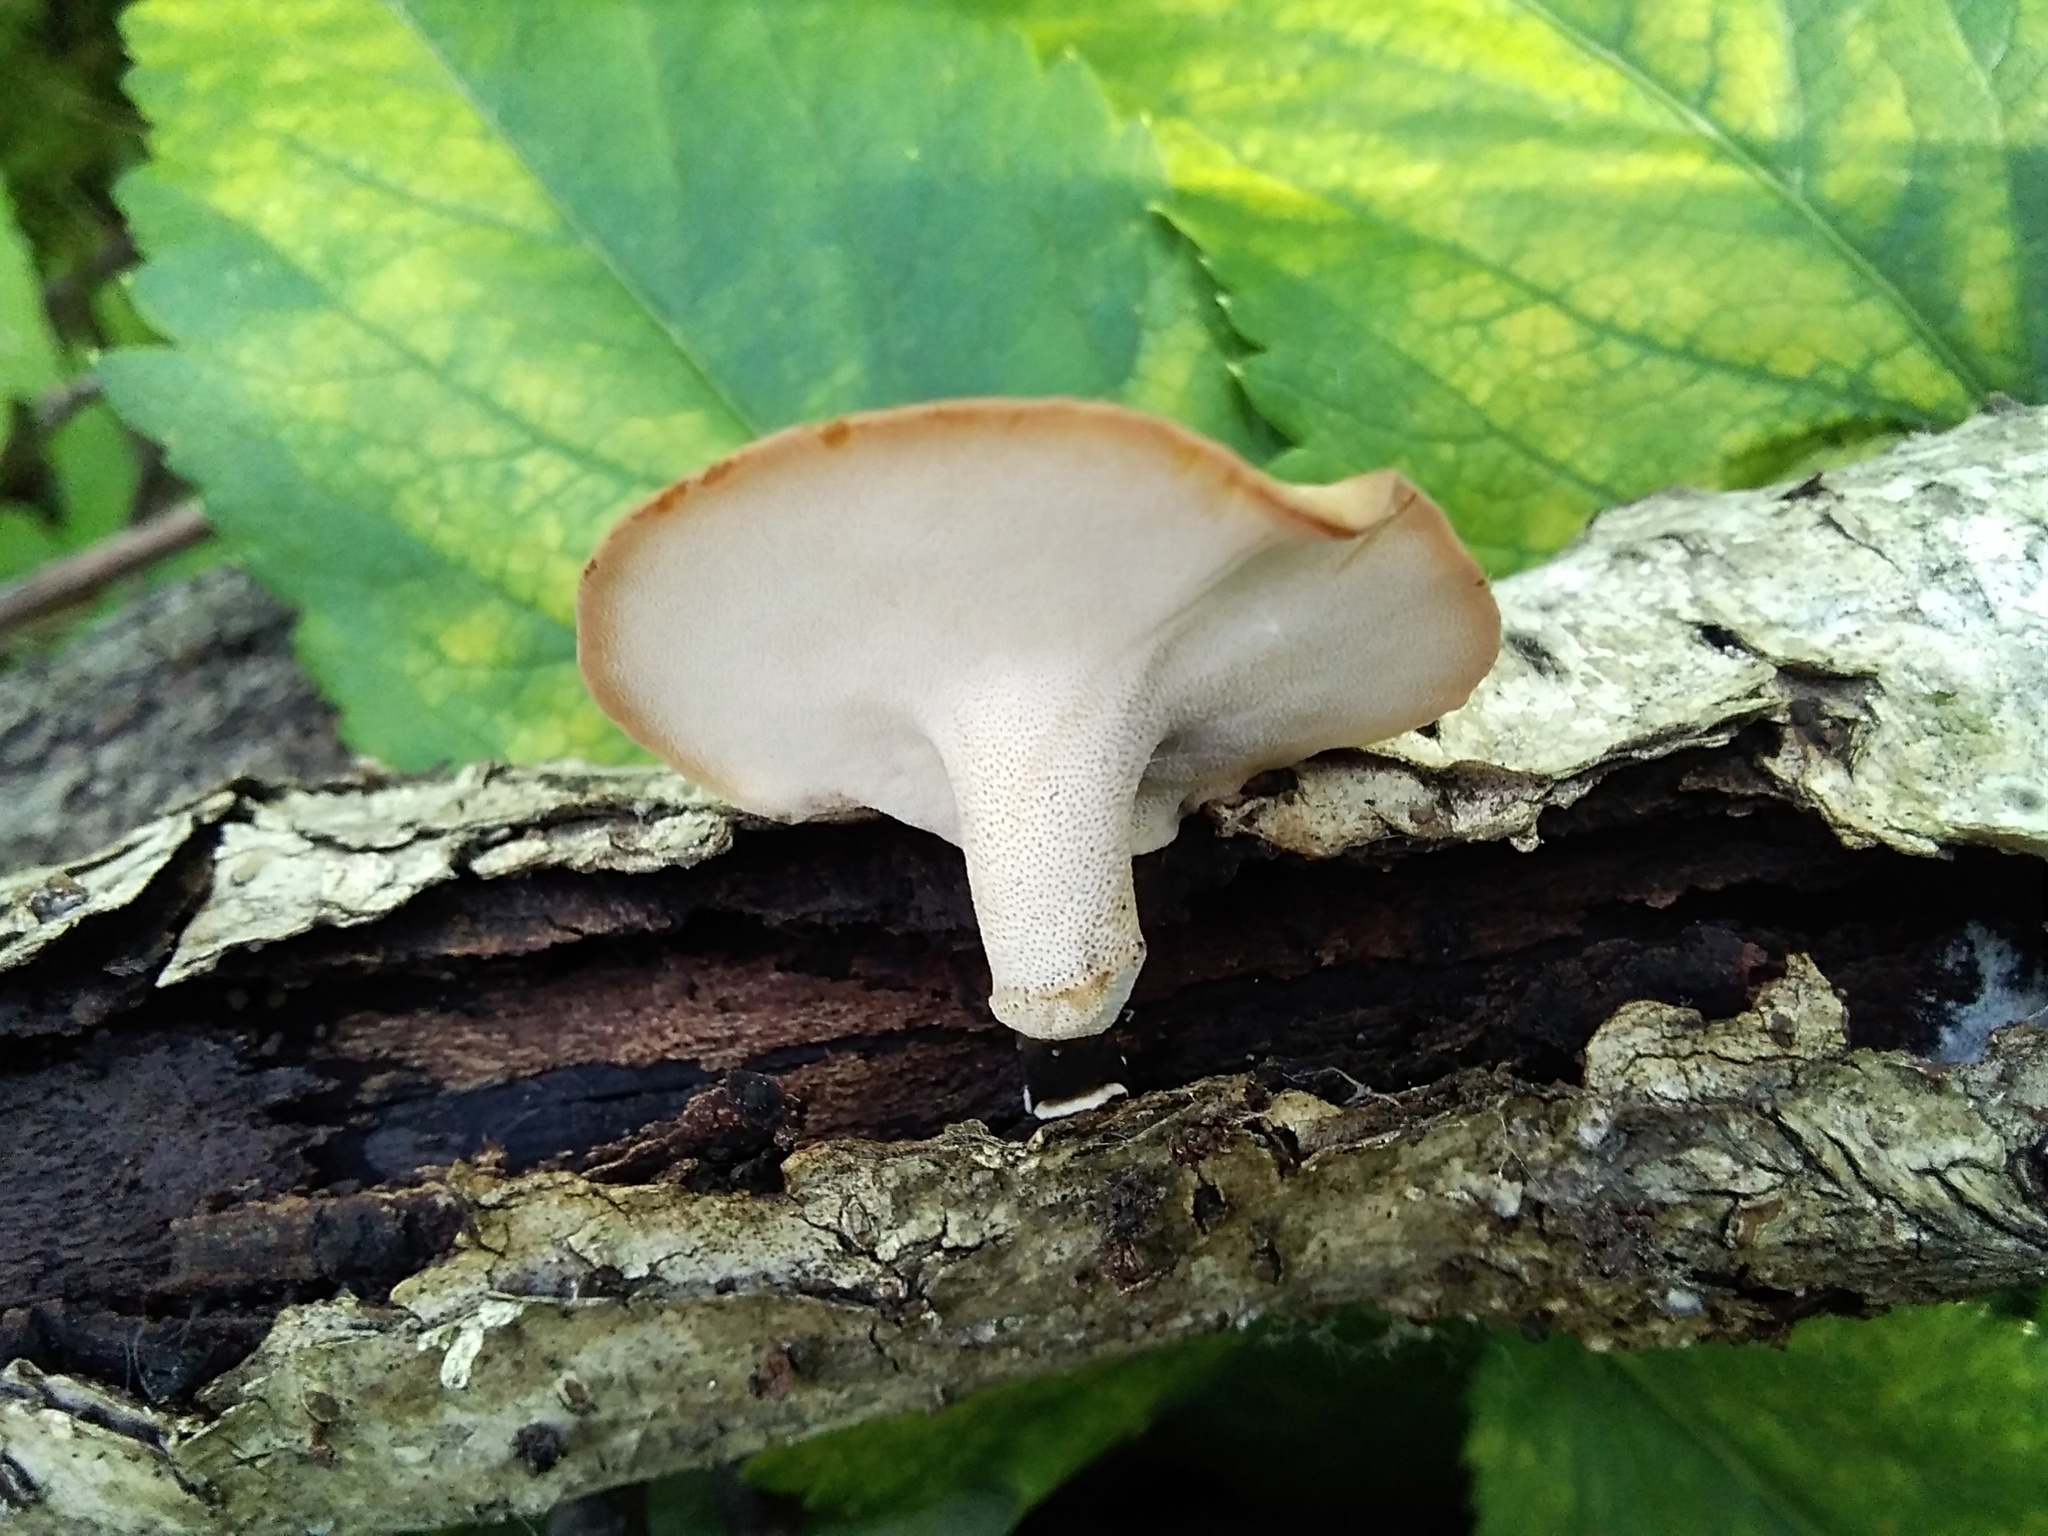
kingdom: Fungi
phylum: Basidiomycota
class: Agaricomycetes
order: Polyporales
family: Polyporaceae
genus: Cerioporus
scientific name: Cerioporus varius
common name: Elegant polypore
